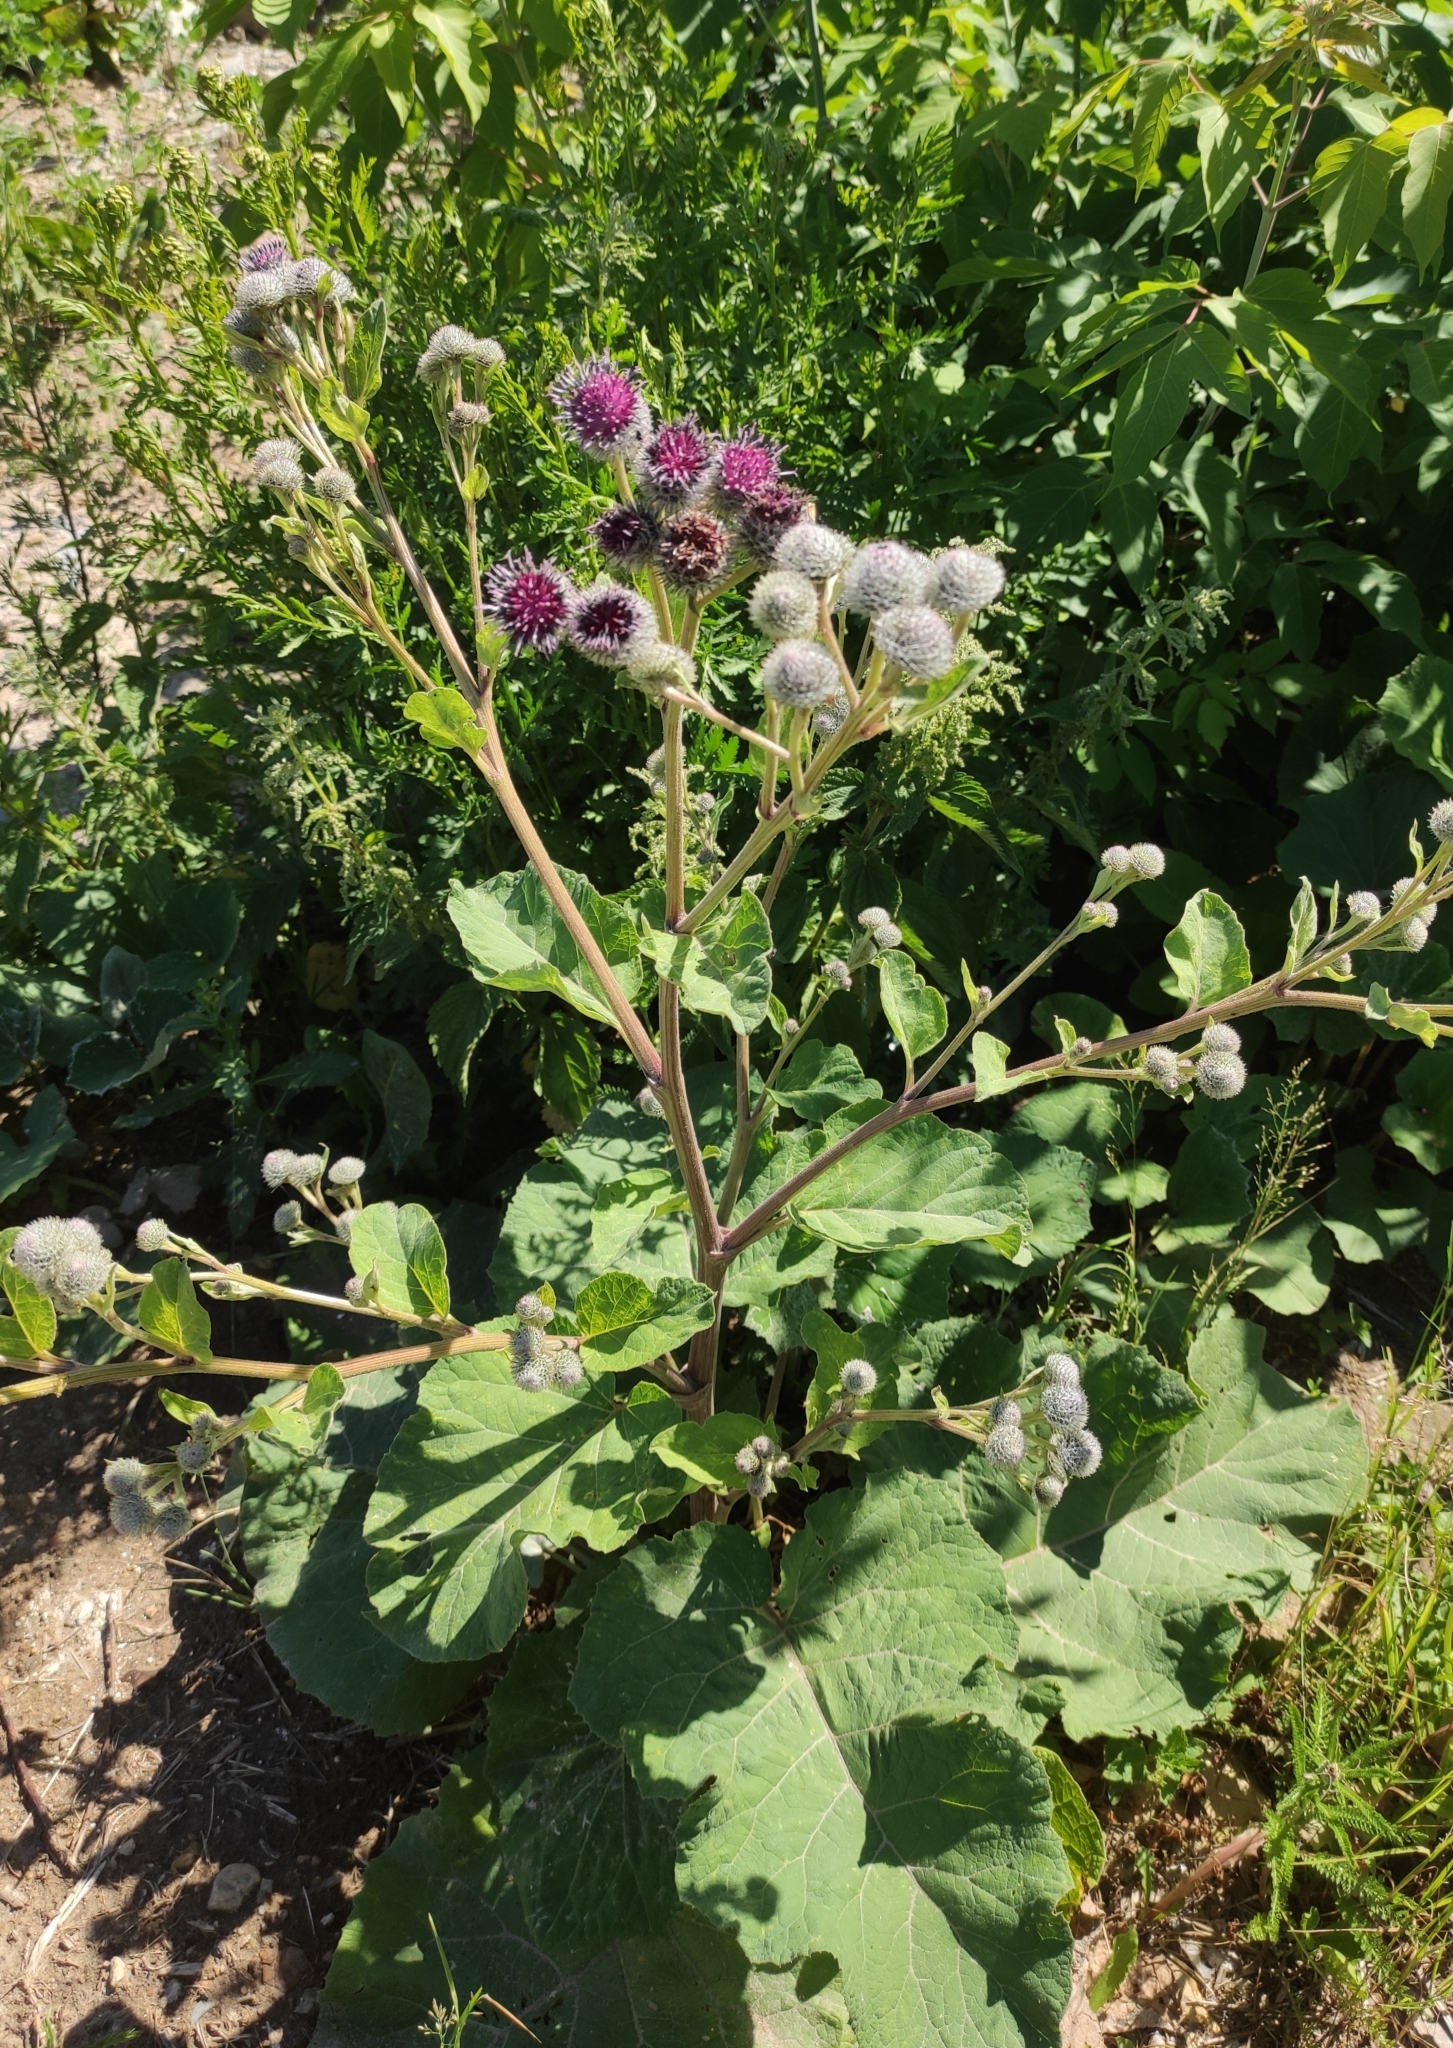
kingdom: Plantae
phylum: Tracheophyta
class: Magnoliopsida
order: Asterales
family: Asteraceae
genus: Arctium
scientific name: Arctium tomentosum
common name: Woolly burdock
